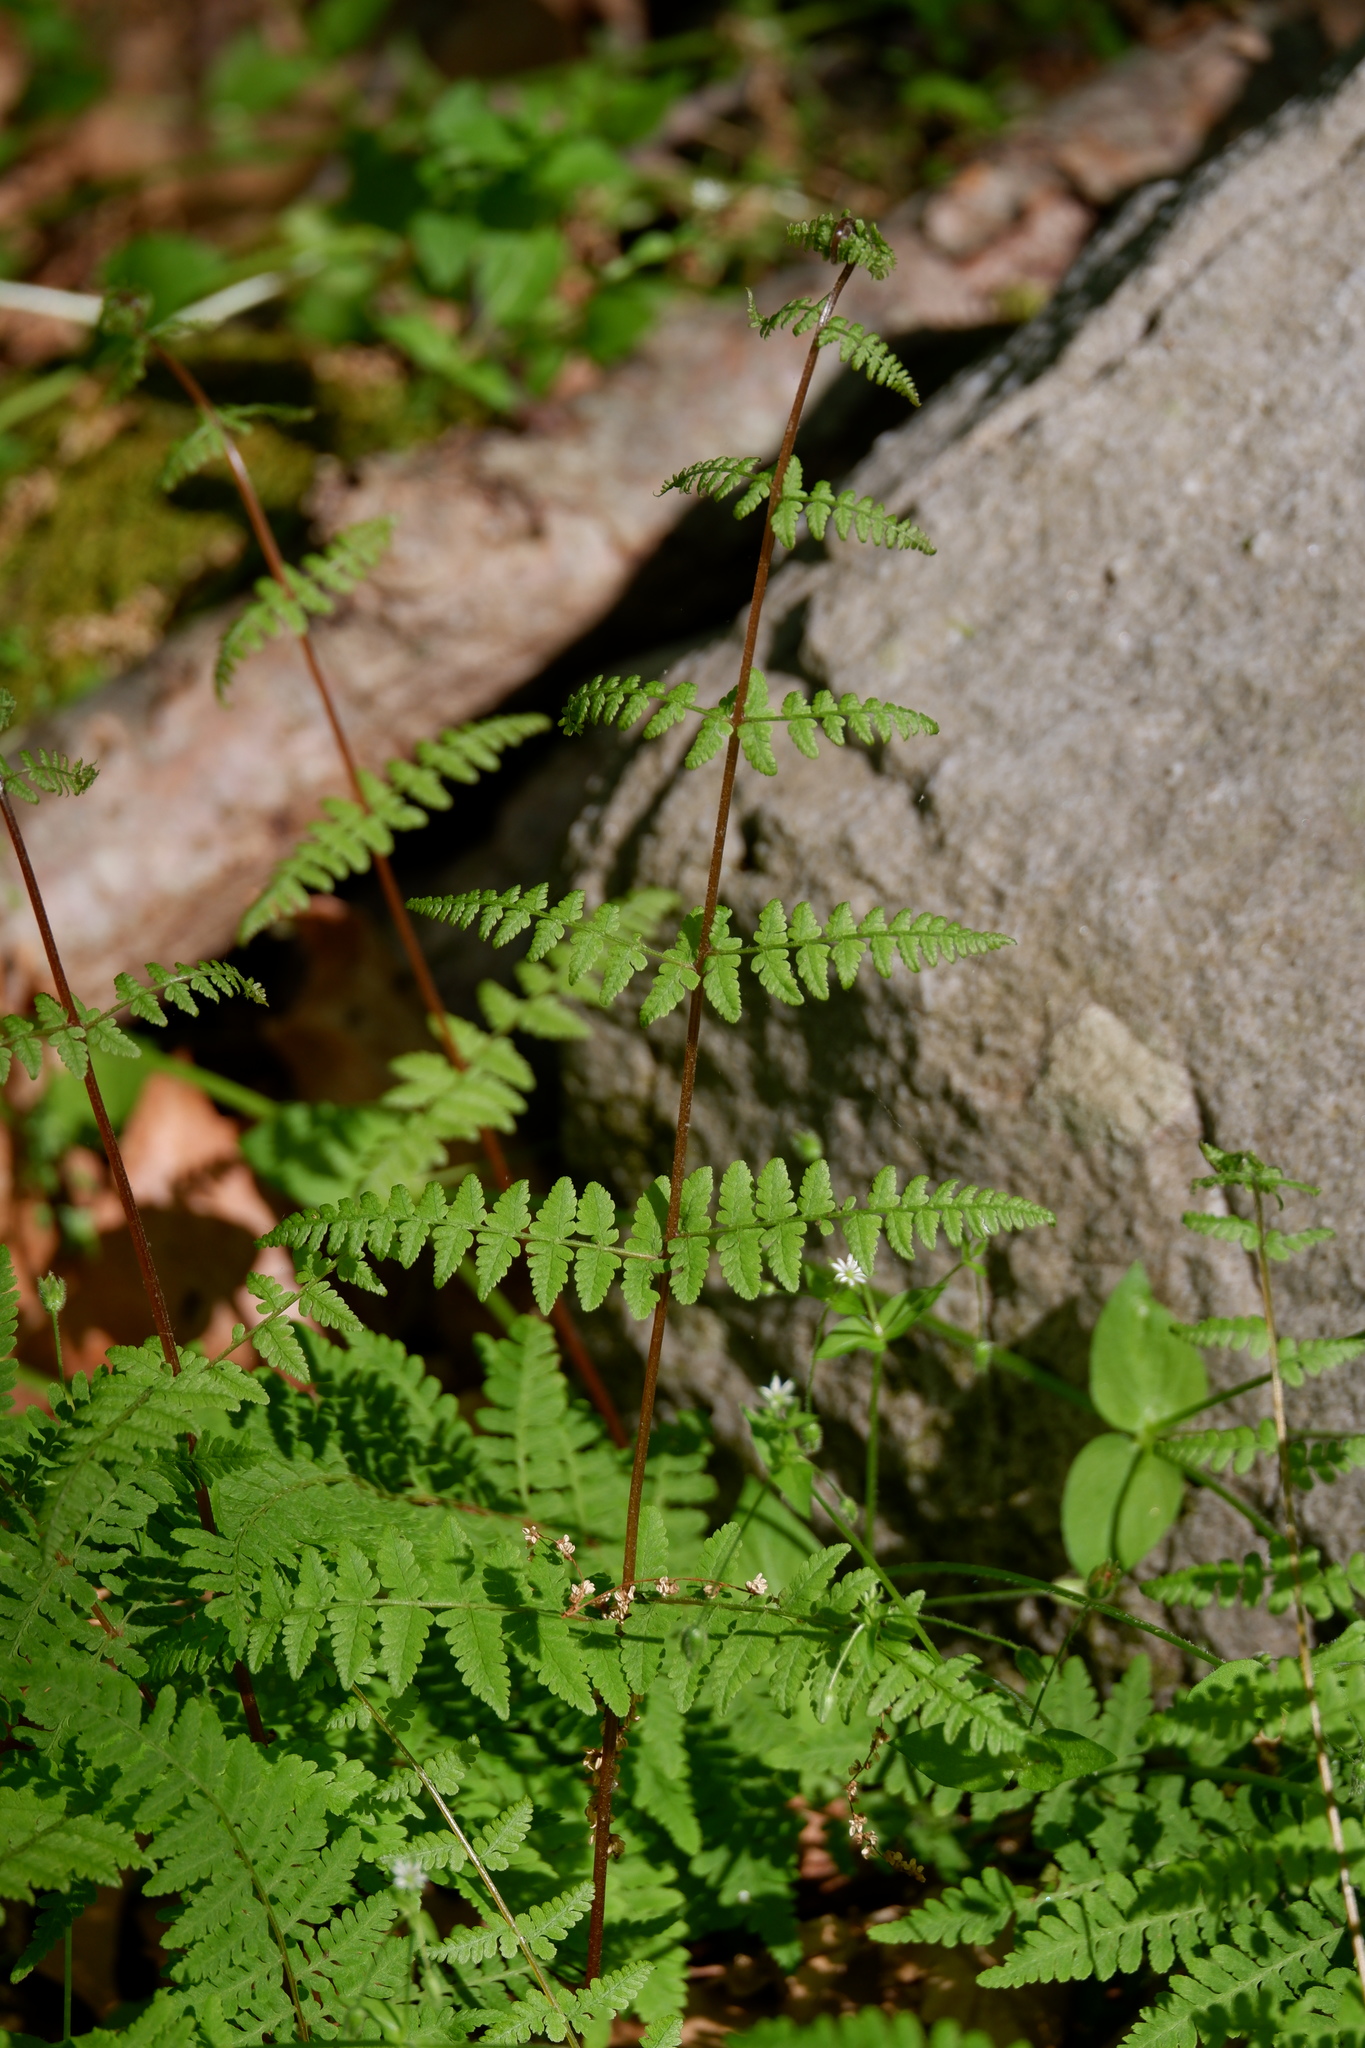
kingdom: Plantae
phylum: Tracheophyta
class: Polypodiopsida
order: Polypodiales
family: Cystopteridaceae
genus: Cystopteris
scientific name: Cystopteris bulbifera
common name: Bulblet bladder fern
